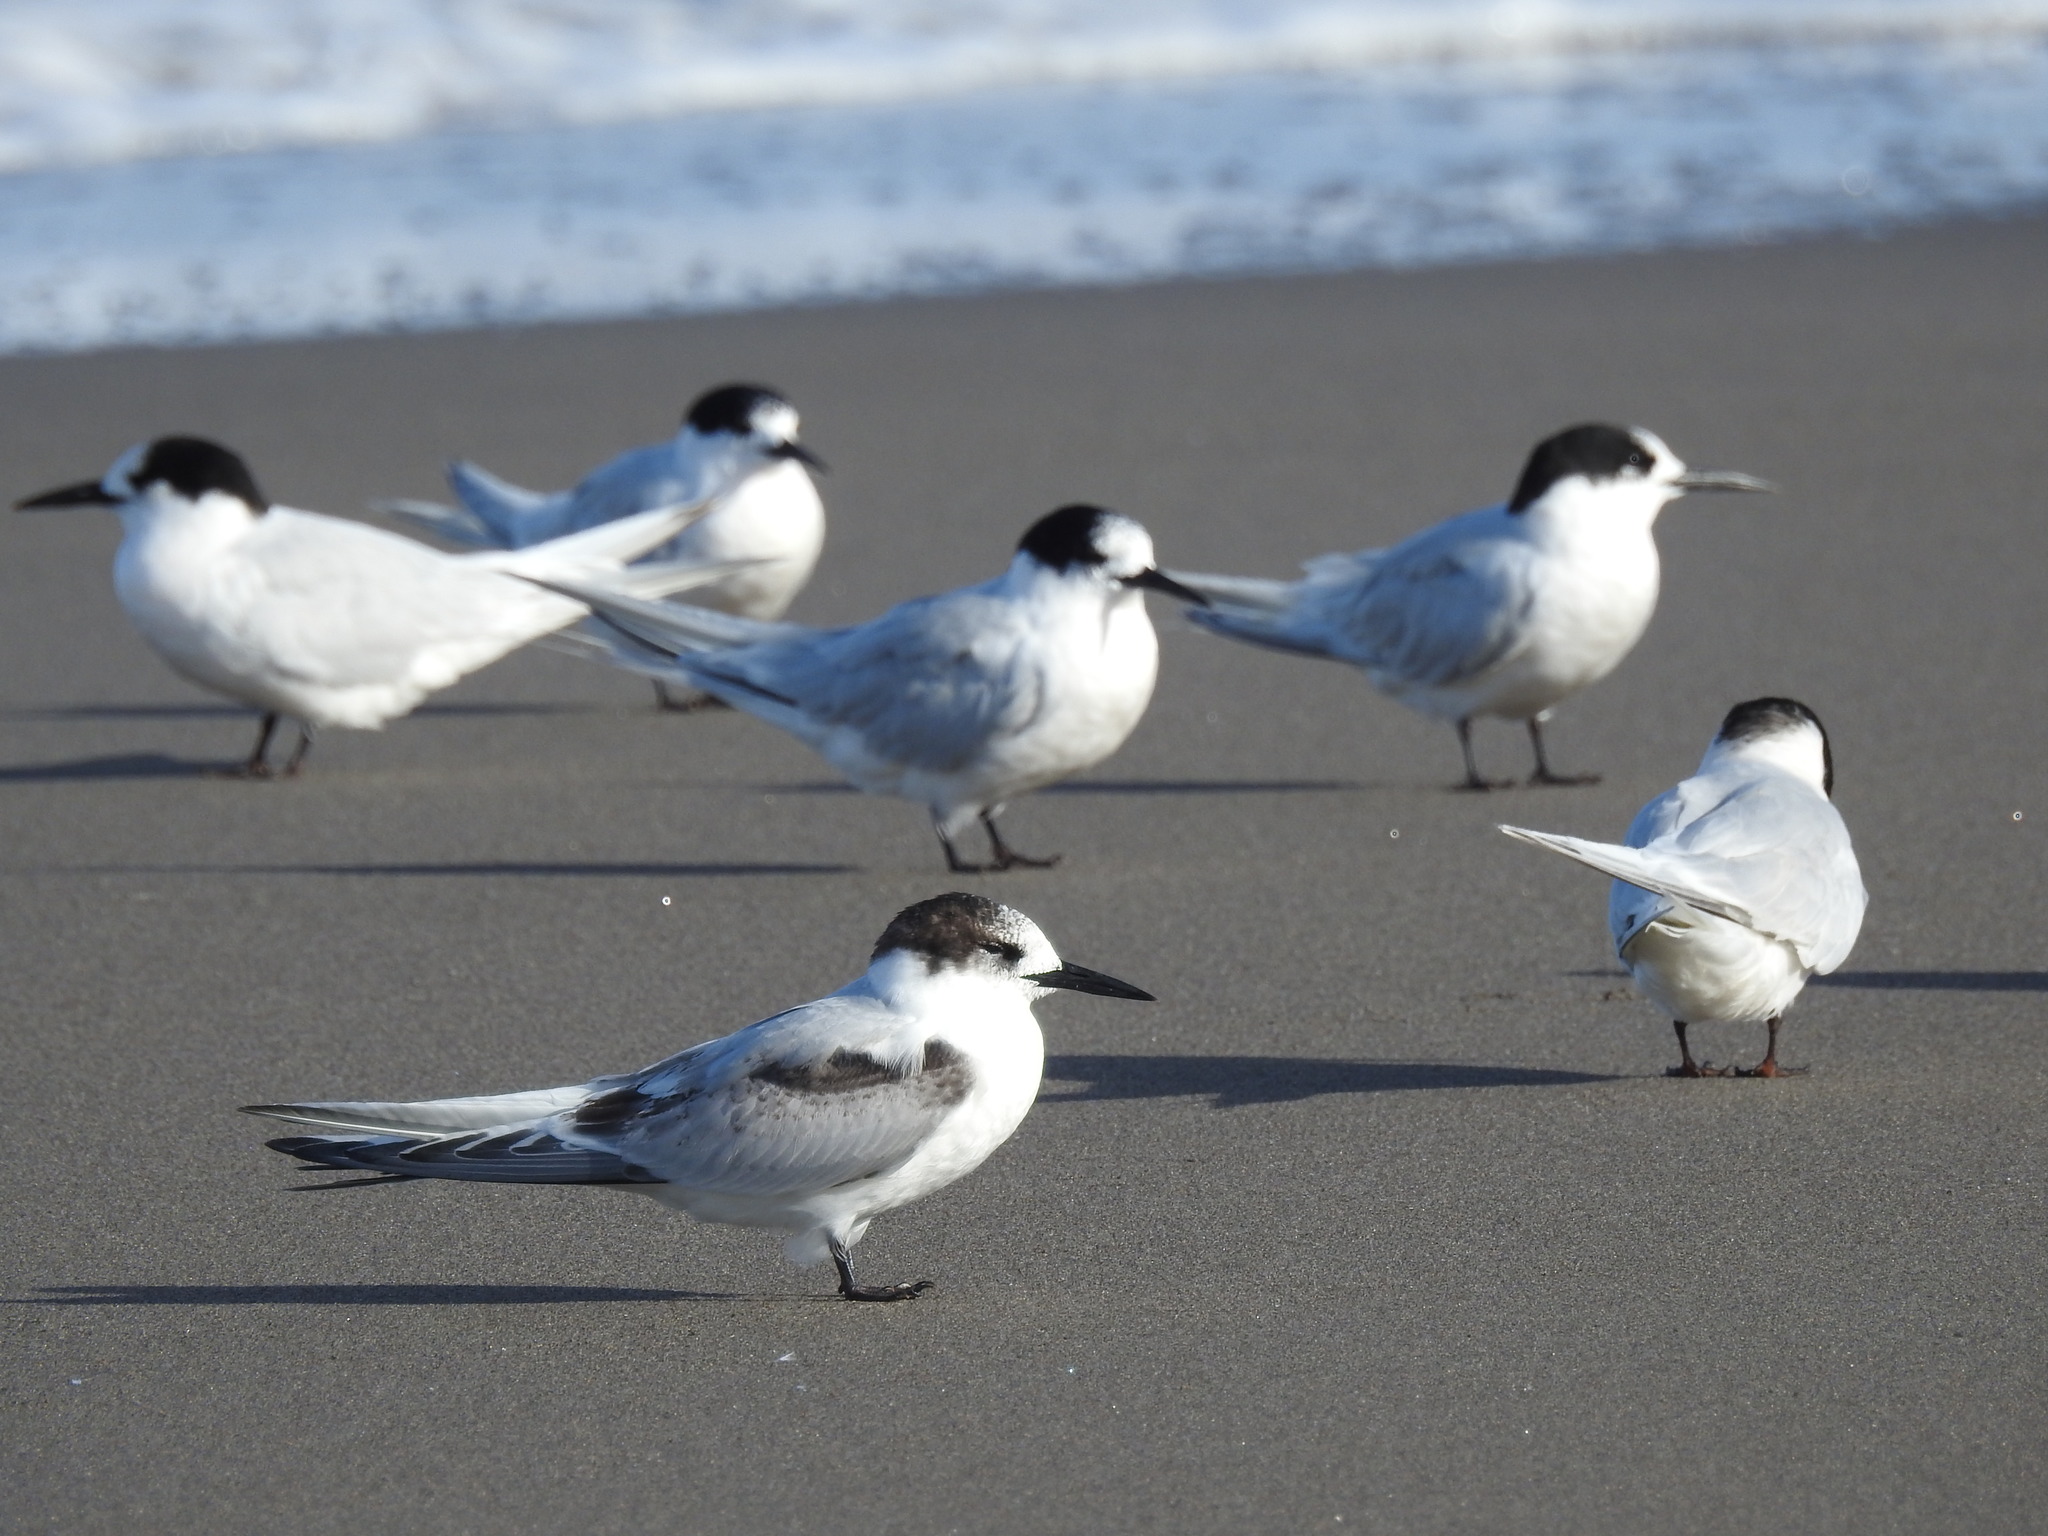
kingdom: Animalia
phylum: Chordata
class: Aves
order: Charadriiformes
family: Laridae
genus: Sterna
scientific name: Sterna striata
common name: White-fronted tern
